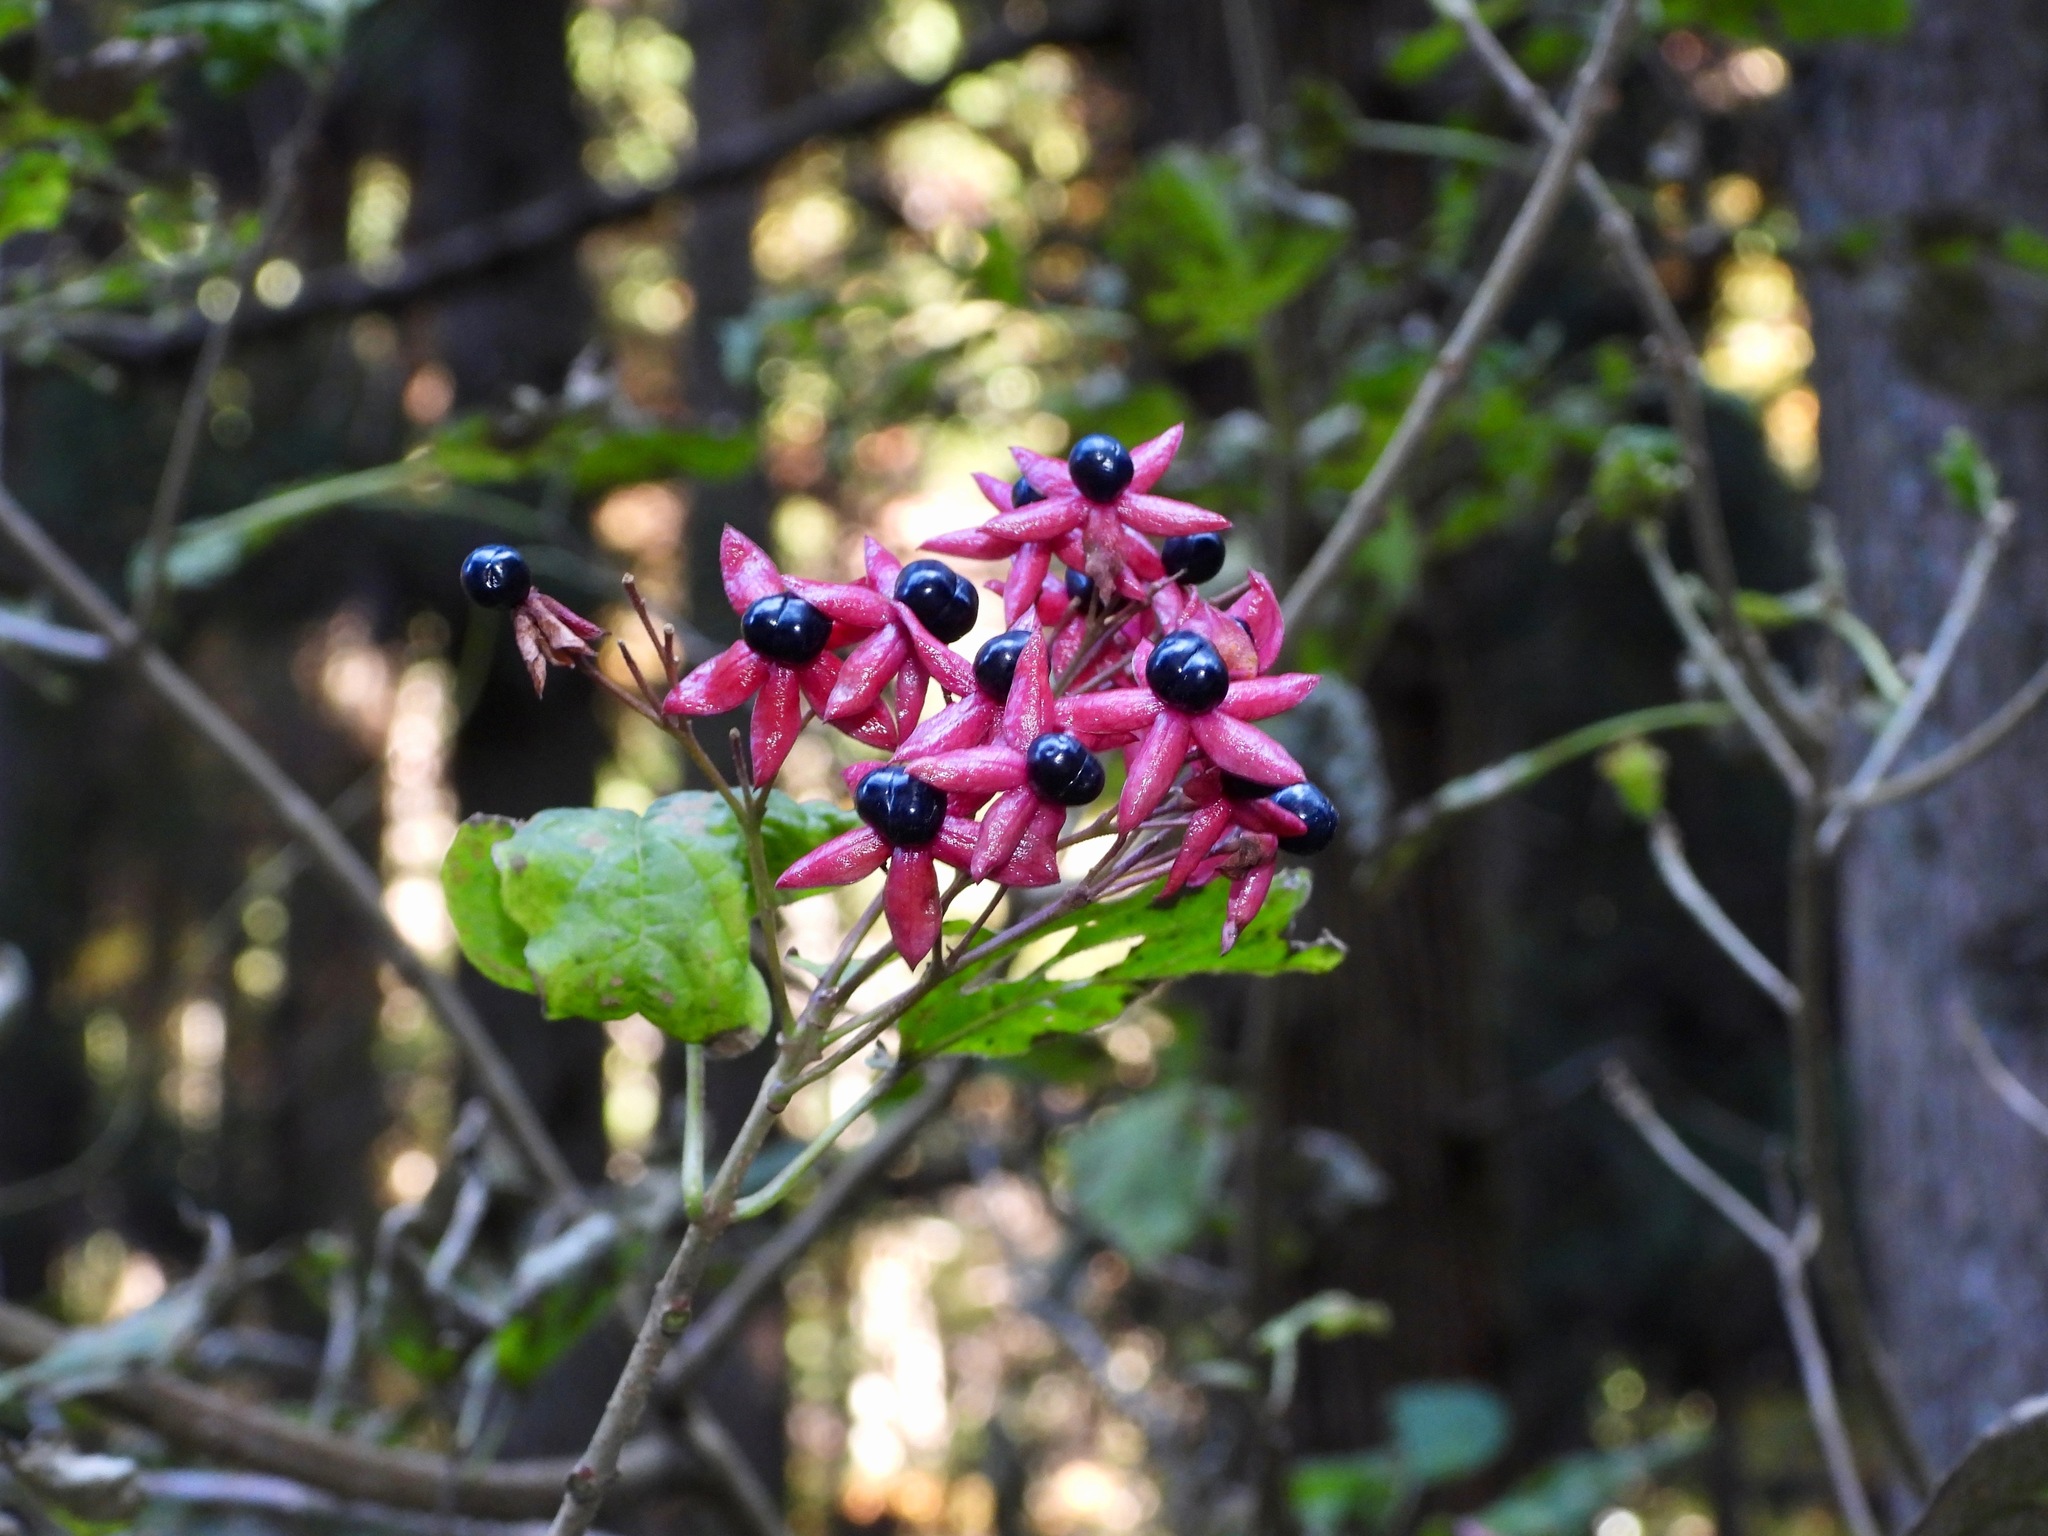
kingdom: Plantae
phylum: Tracheophyta
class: Magnoliopsida
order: Lamiales
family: Lamiaceae
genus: Clerodendrum
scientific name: Clerodendrum trichotomum
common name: Harlequin glorybower
